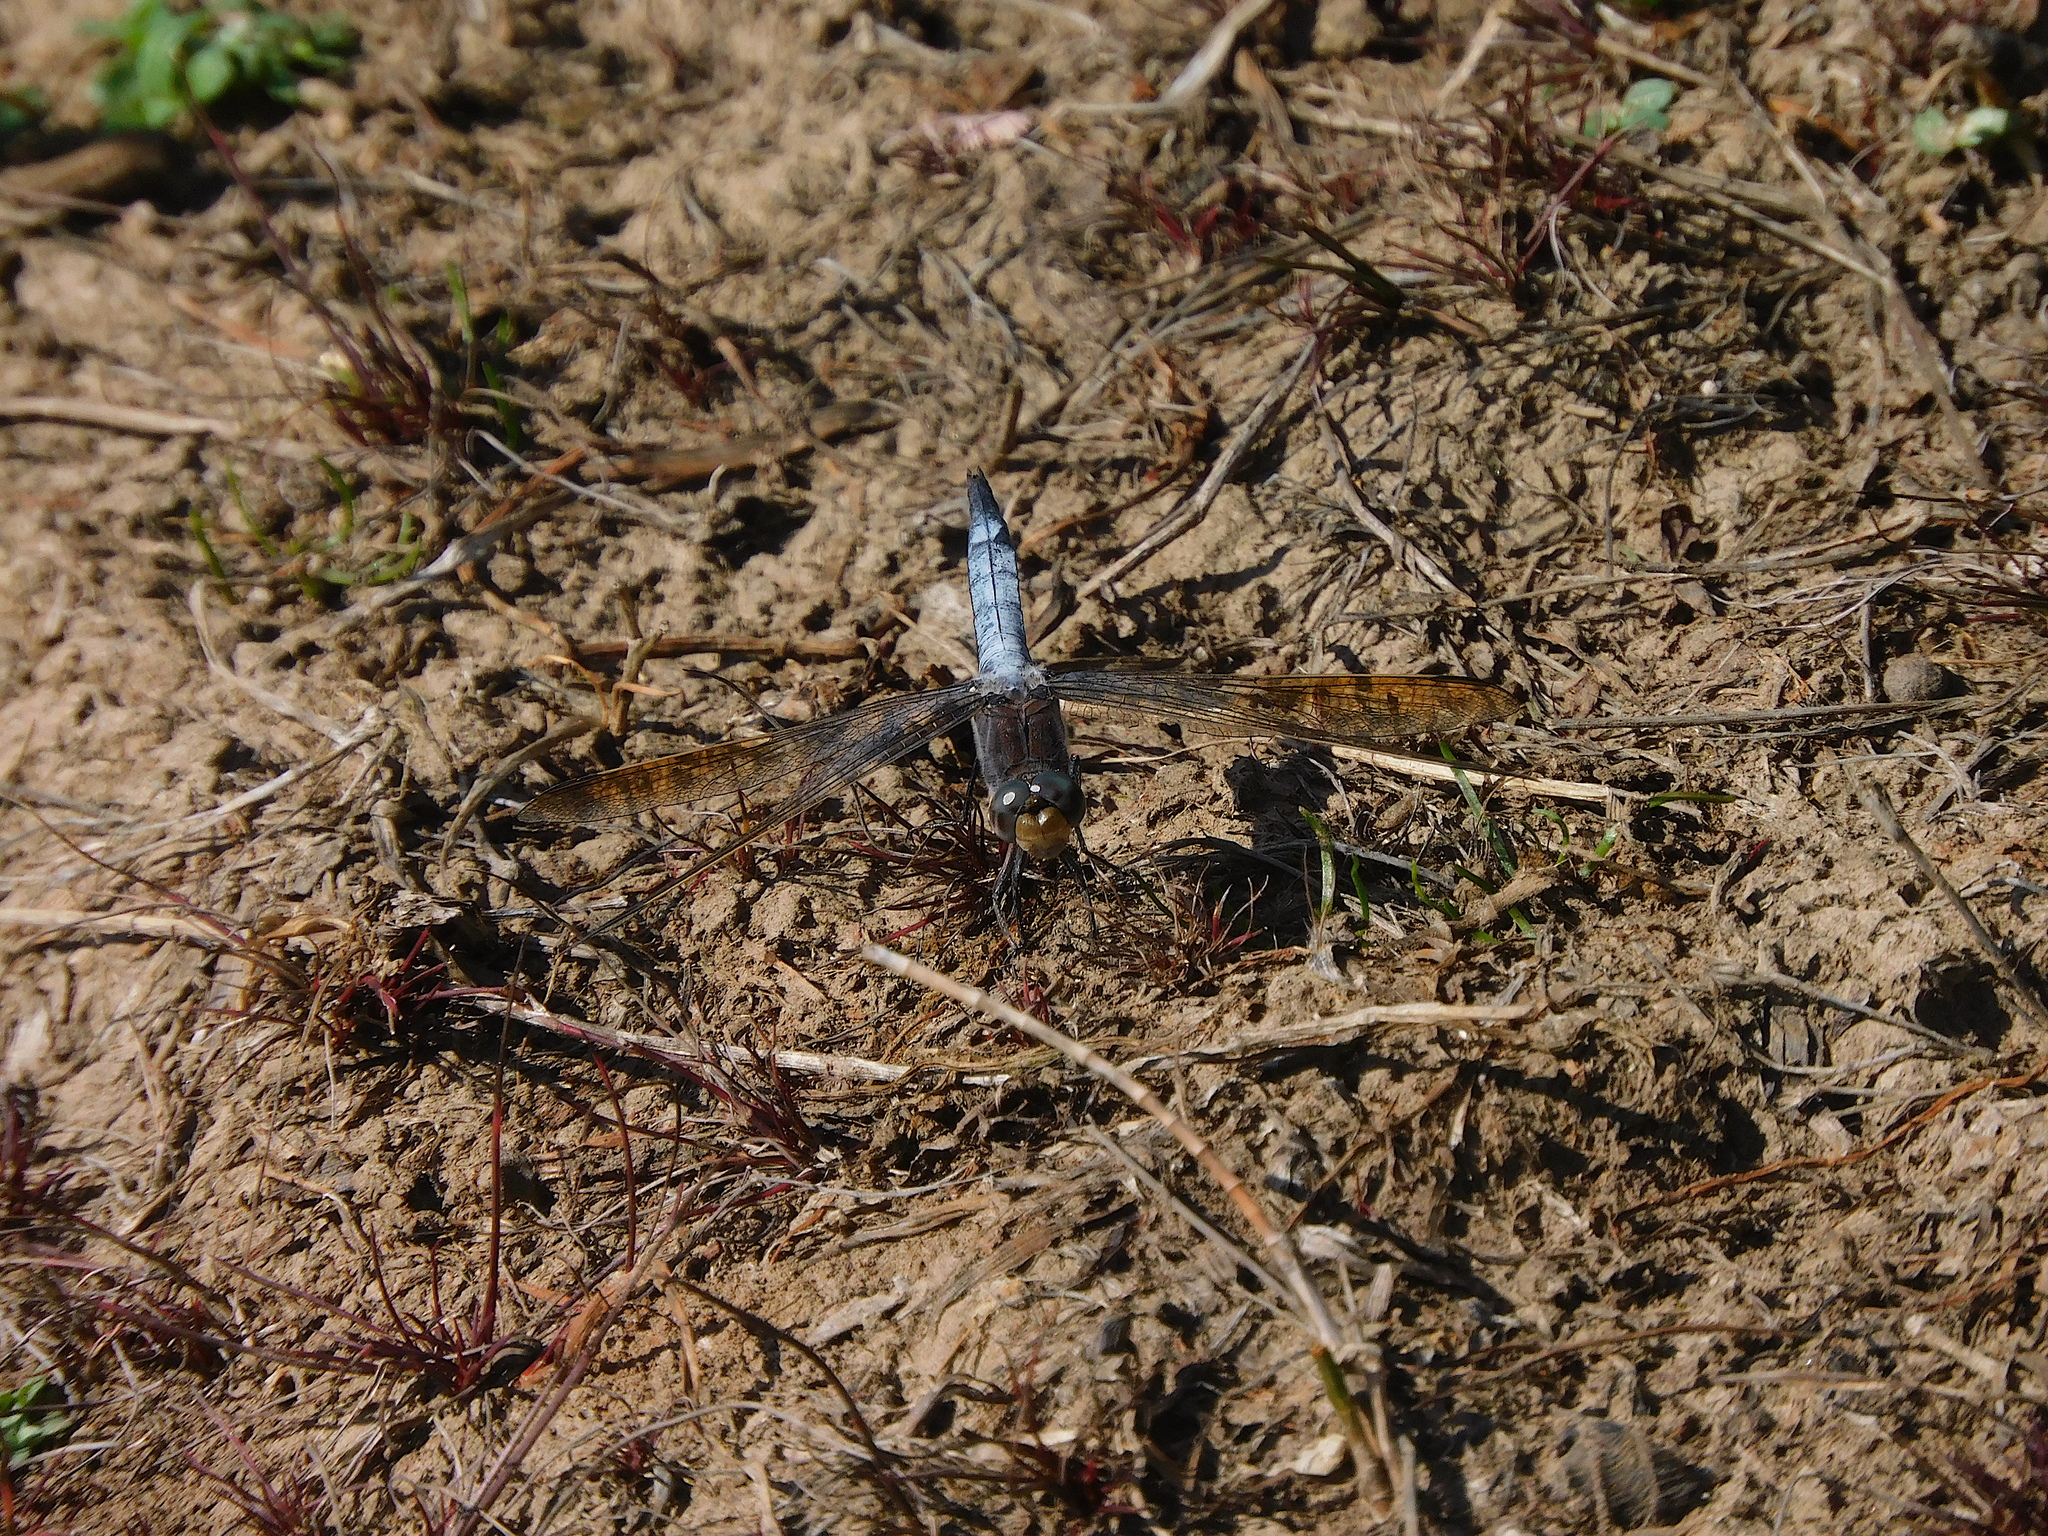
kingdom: Animalia
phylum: Arthropoda
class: Insecta
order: Odonata
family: Libellulidae
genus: Orthetrum
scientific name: Orthetrum caledonicum
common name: Blue skimmer
